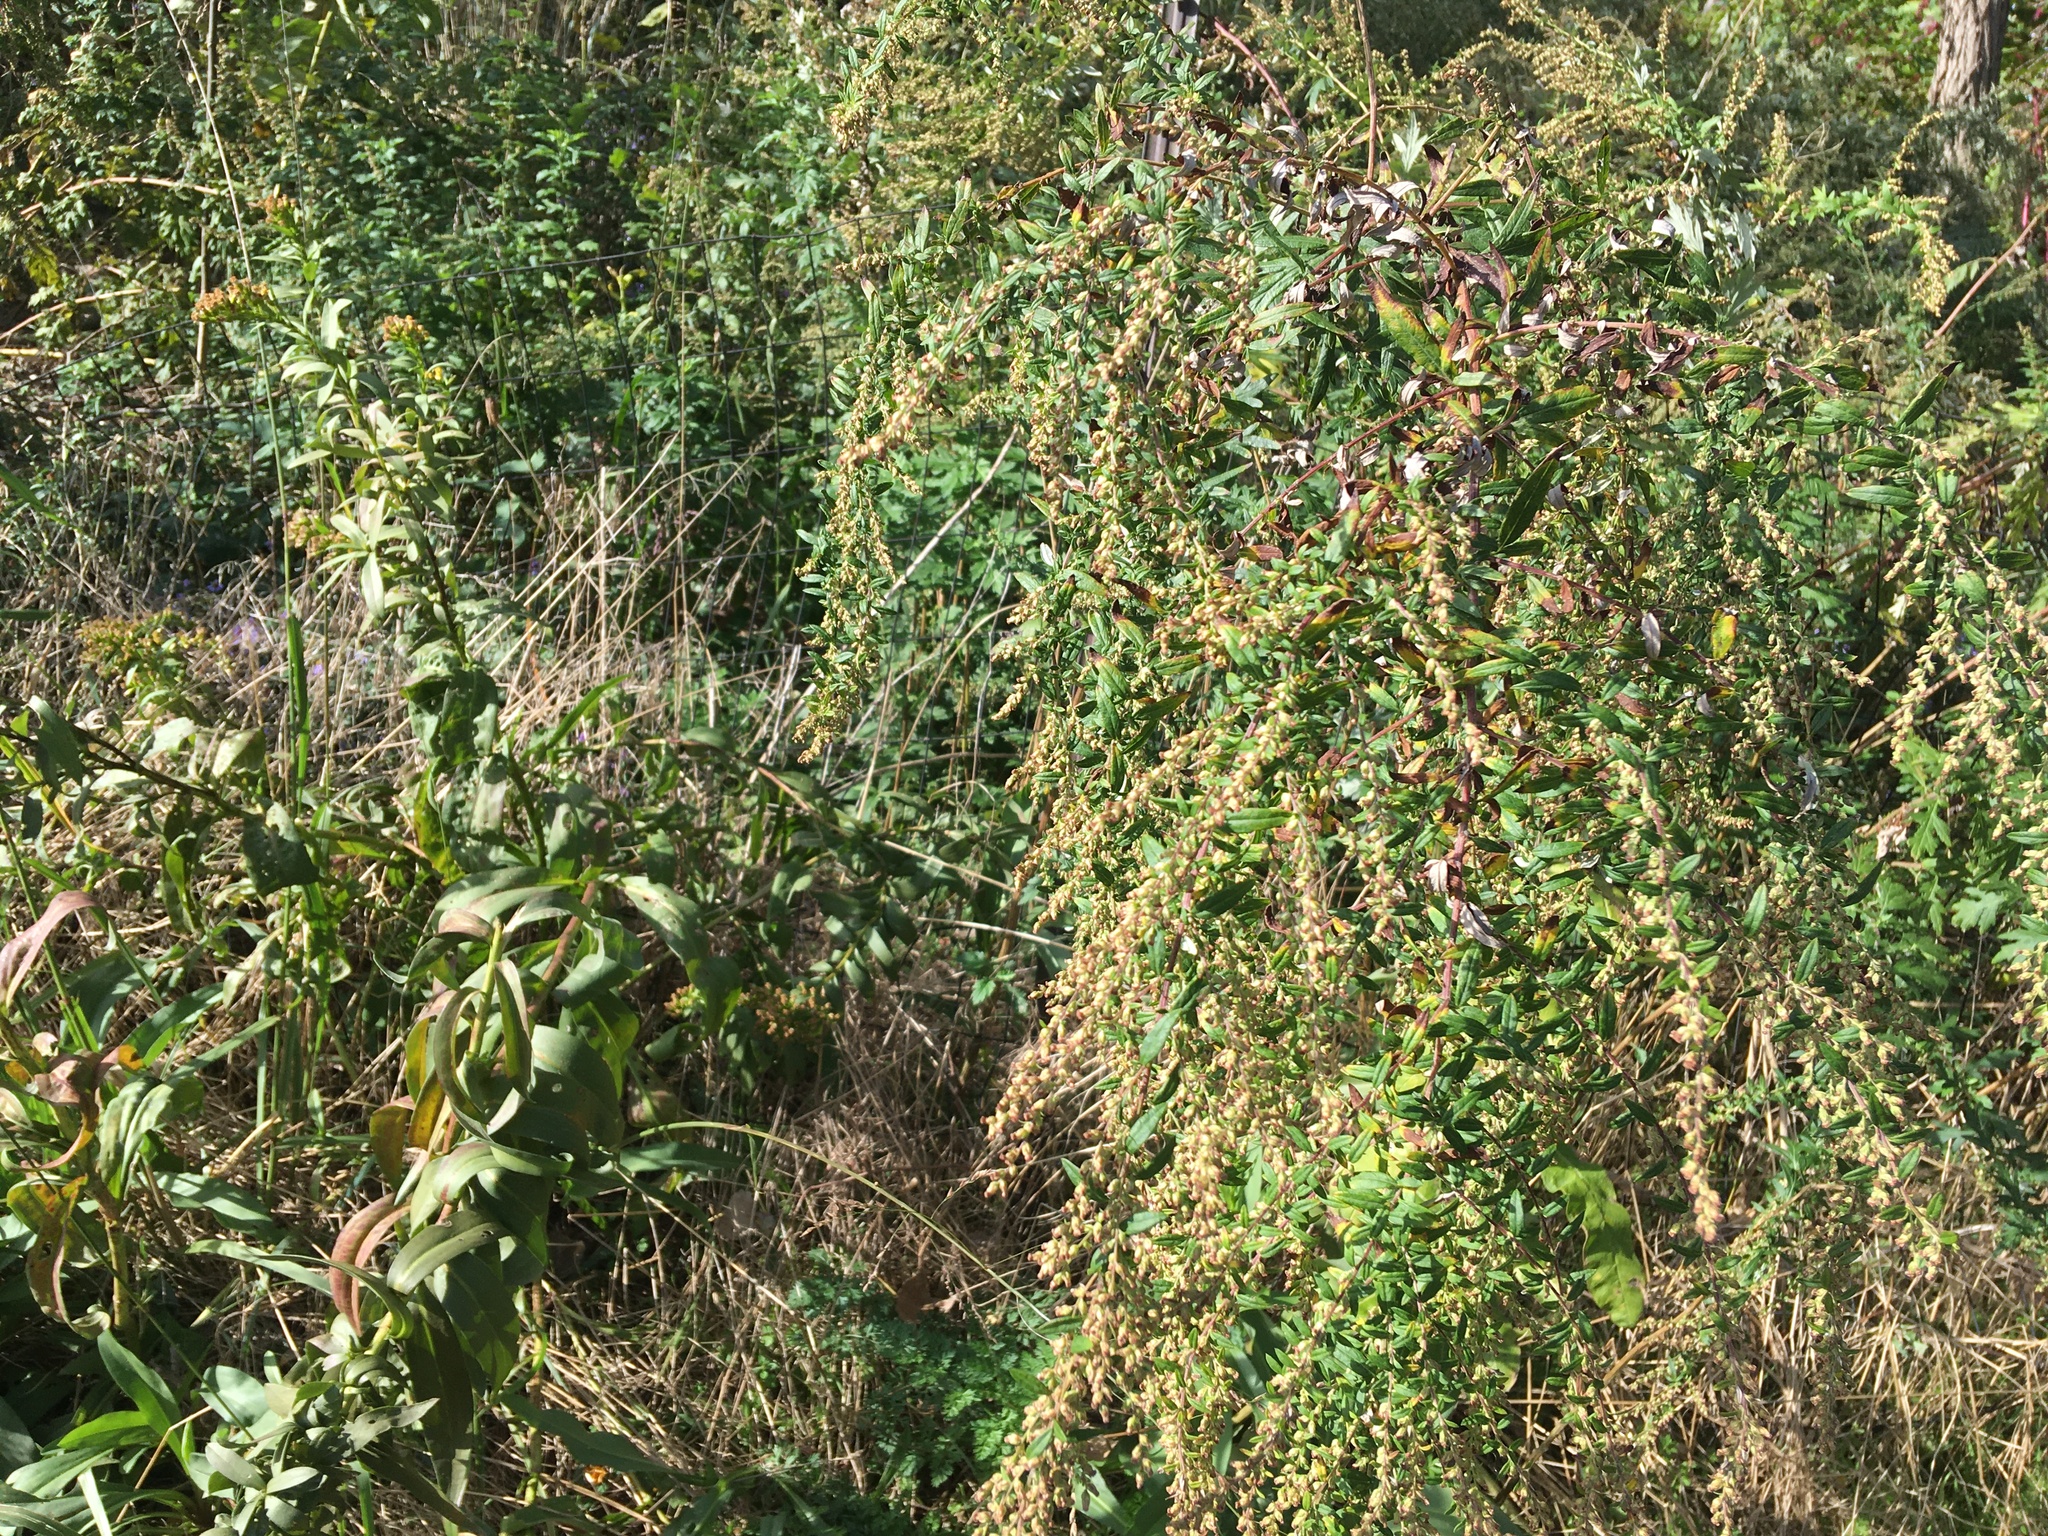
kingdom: Plantae
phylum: Tracheophyta
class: Magnoliopsida
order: Asterales
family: Asteraceae
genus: Artemisia
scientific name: Artemisia vulgaris
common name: Mugwort
